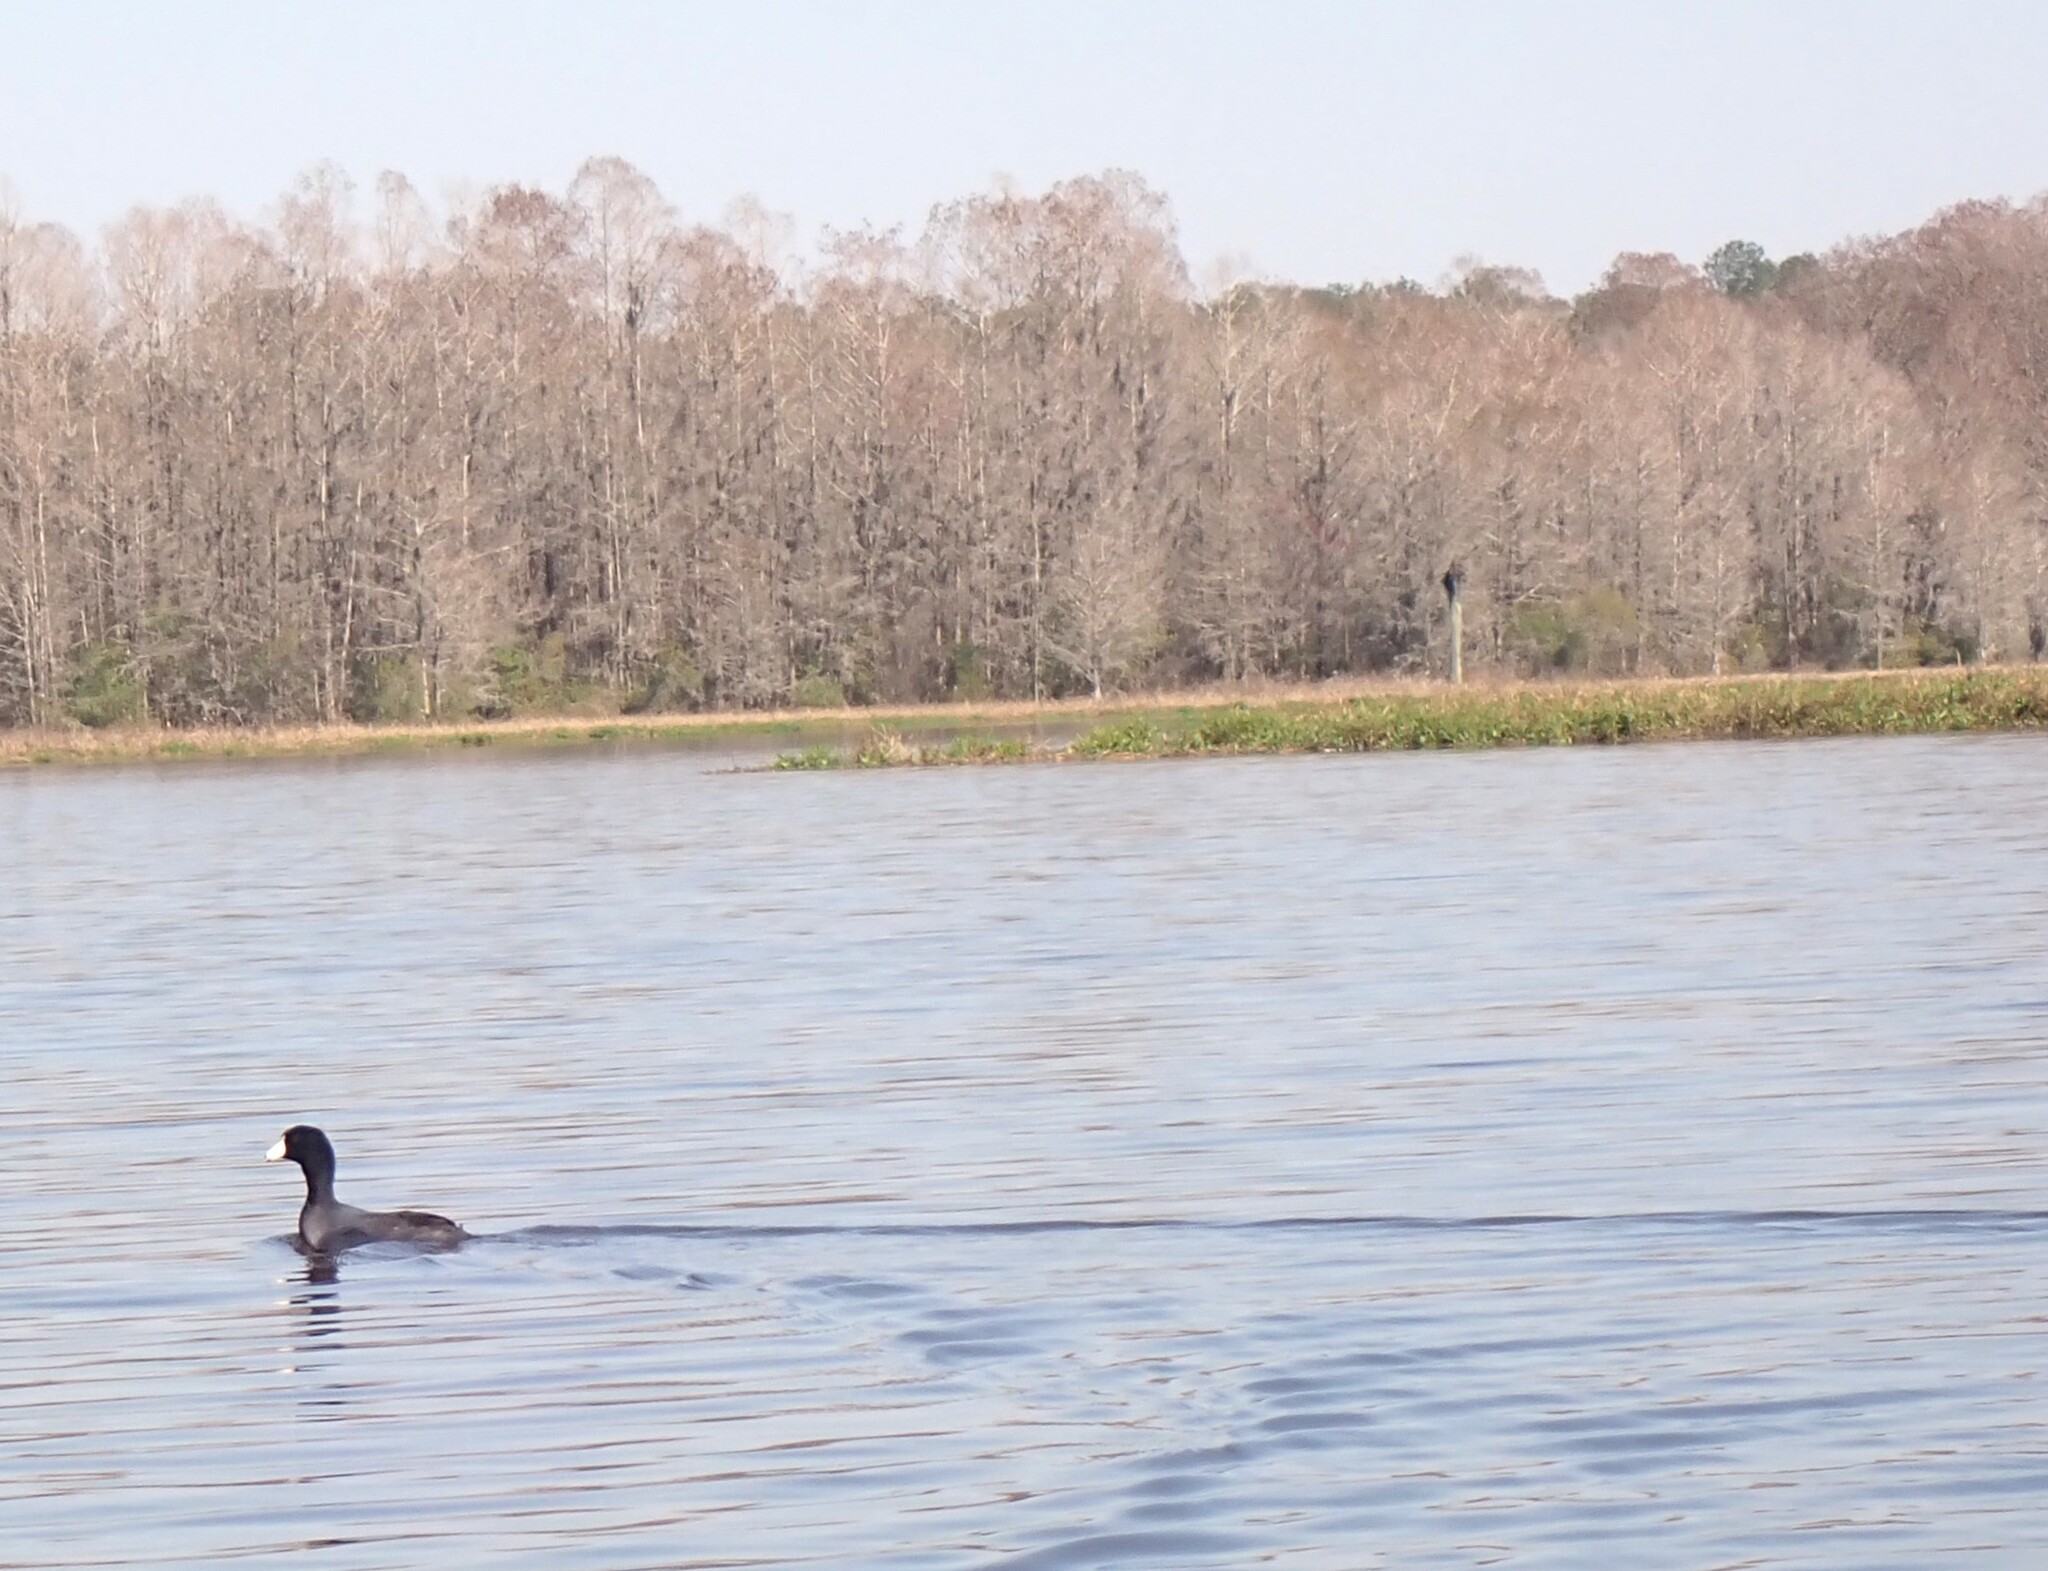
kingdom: Animalia
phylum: Chordata
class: Aves
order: Gruiformes
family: Rallidae
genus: Fulica
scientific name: Fulica americana
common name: American coot
